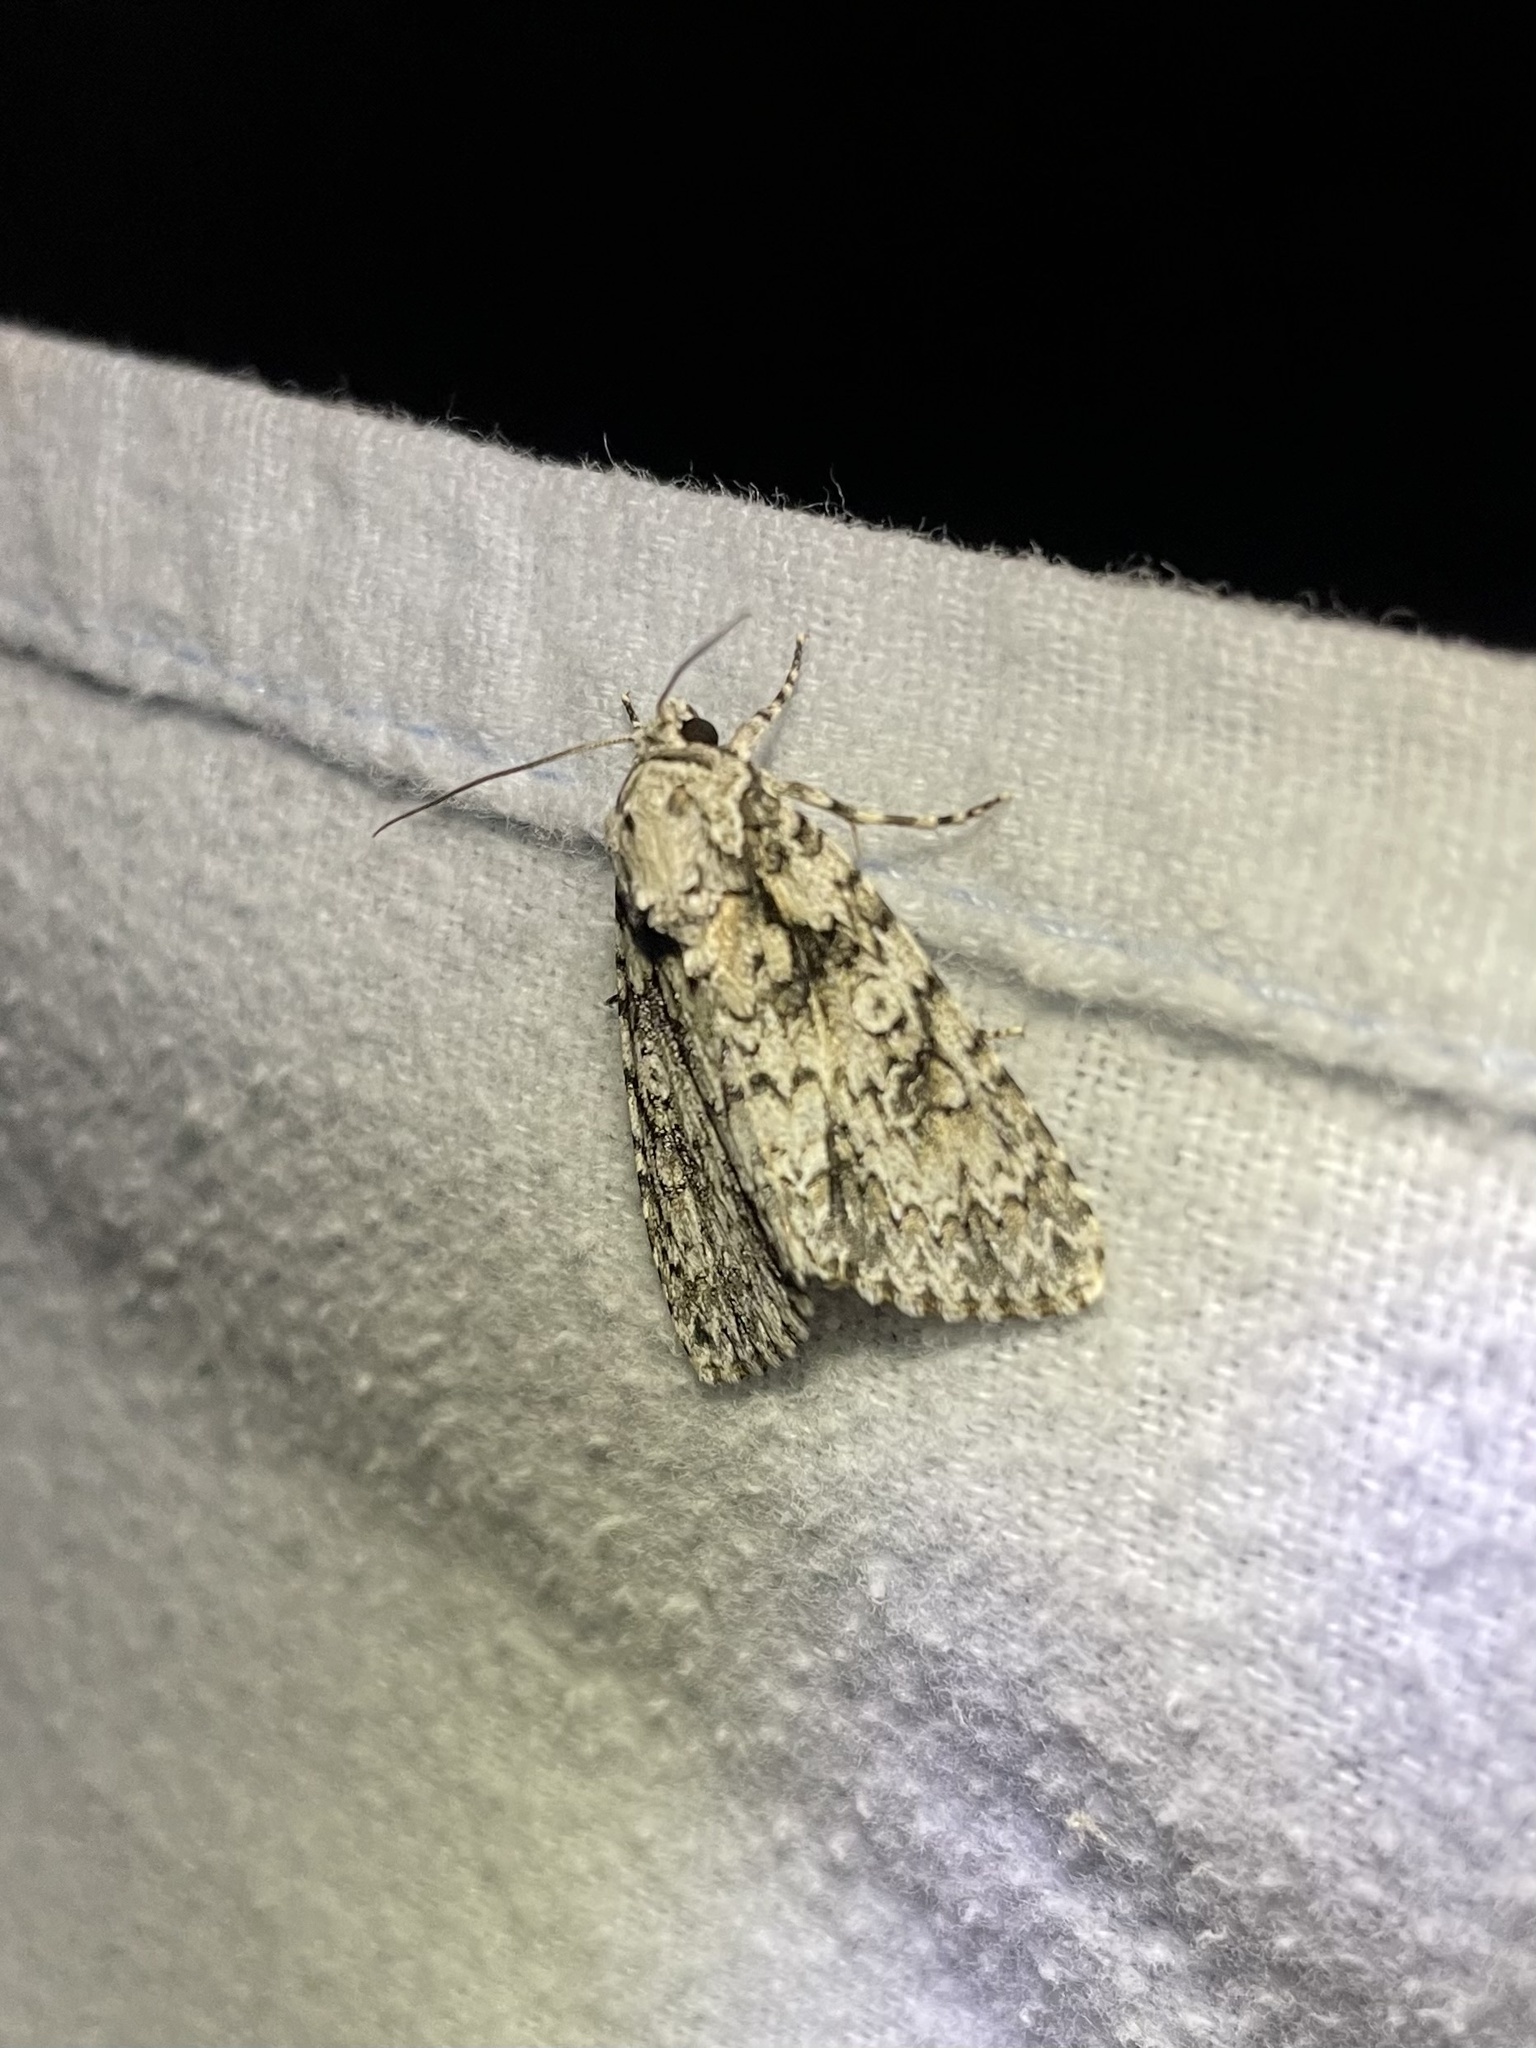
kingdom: Animalia
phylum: Arthropoda
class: Insecta
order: Lepidoptera
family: Noctuidae
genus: Acronicta
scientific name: Acronicta marmorata
